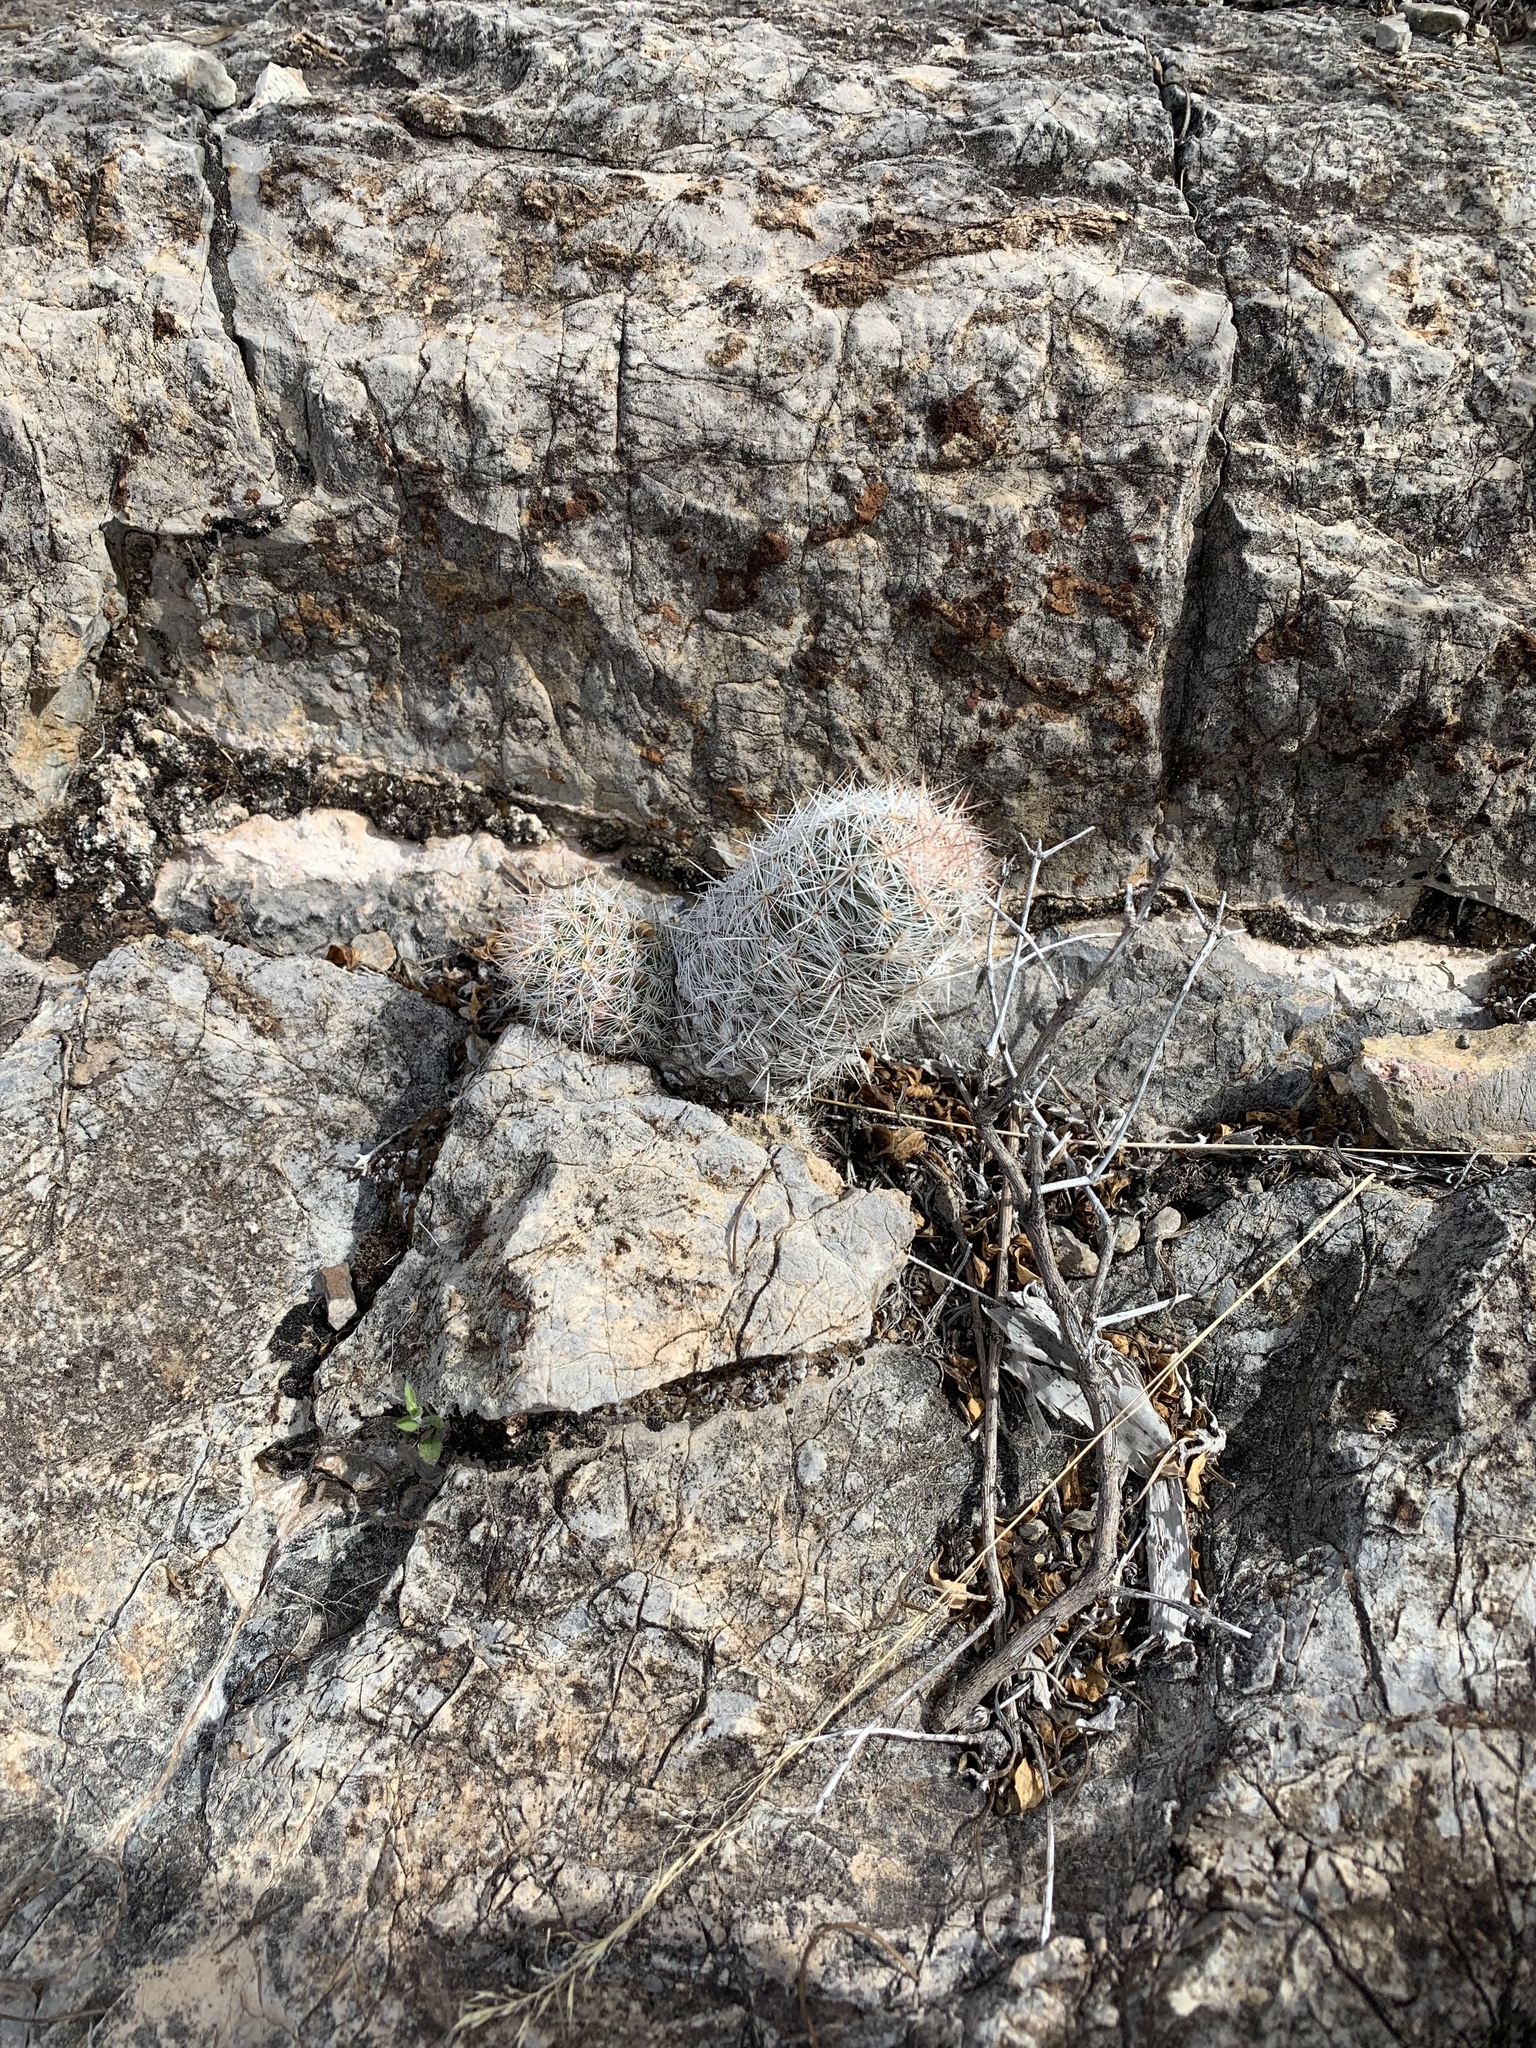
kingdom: Plantae
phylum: Tracheophyta
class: Magnoliopsida
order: Caryophyllales
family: Cactaceae
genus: Pelecyphora
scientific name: Pelecyphora tuberculosa
